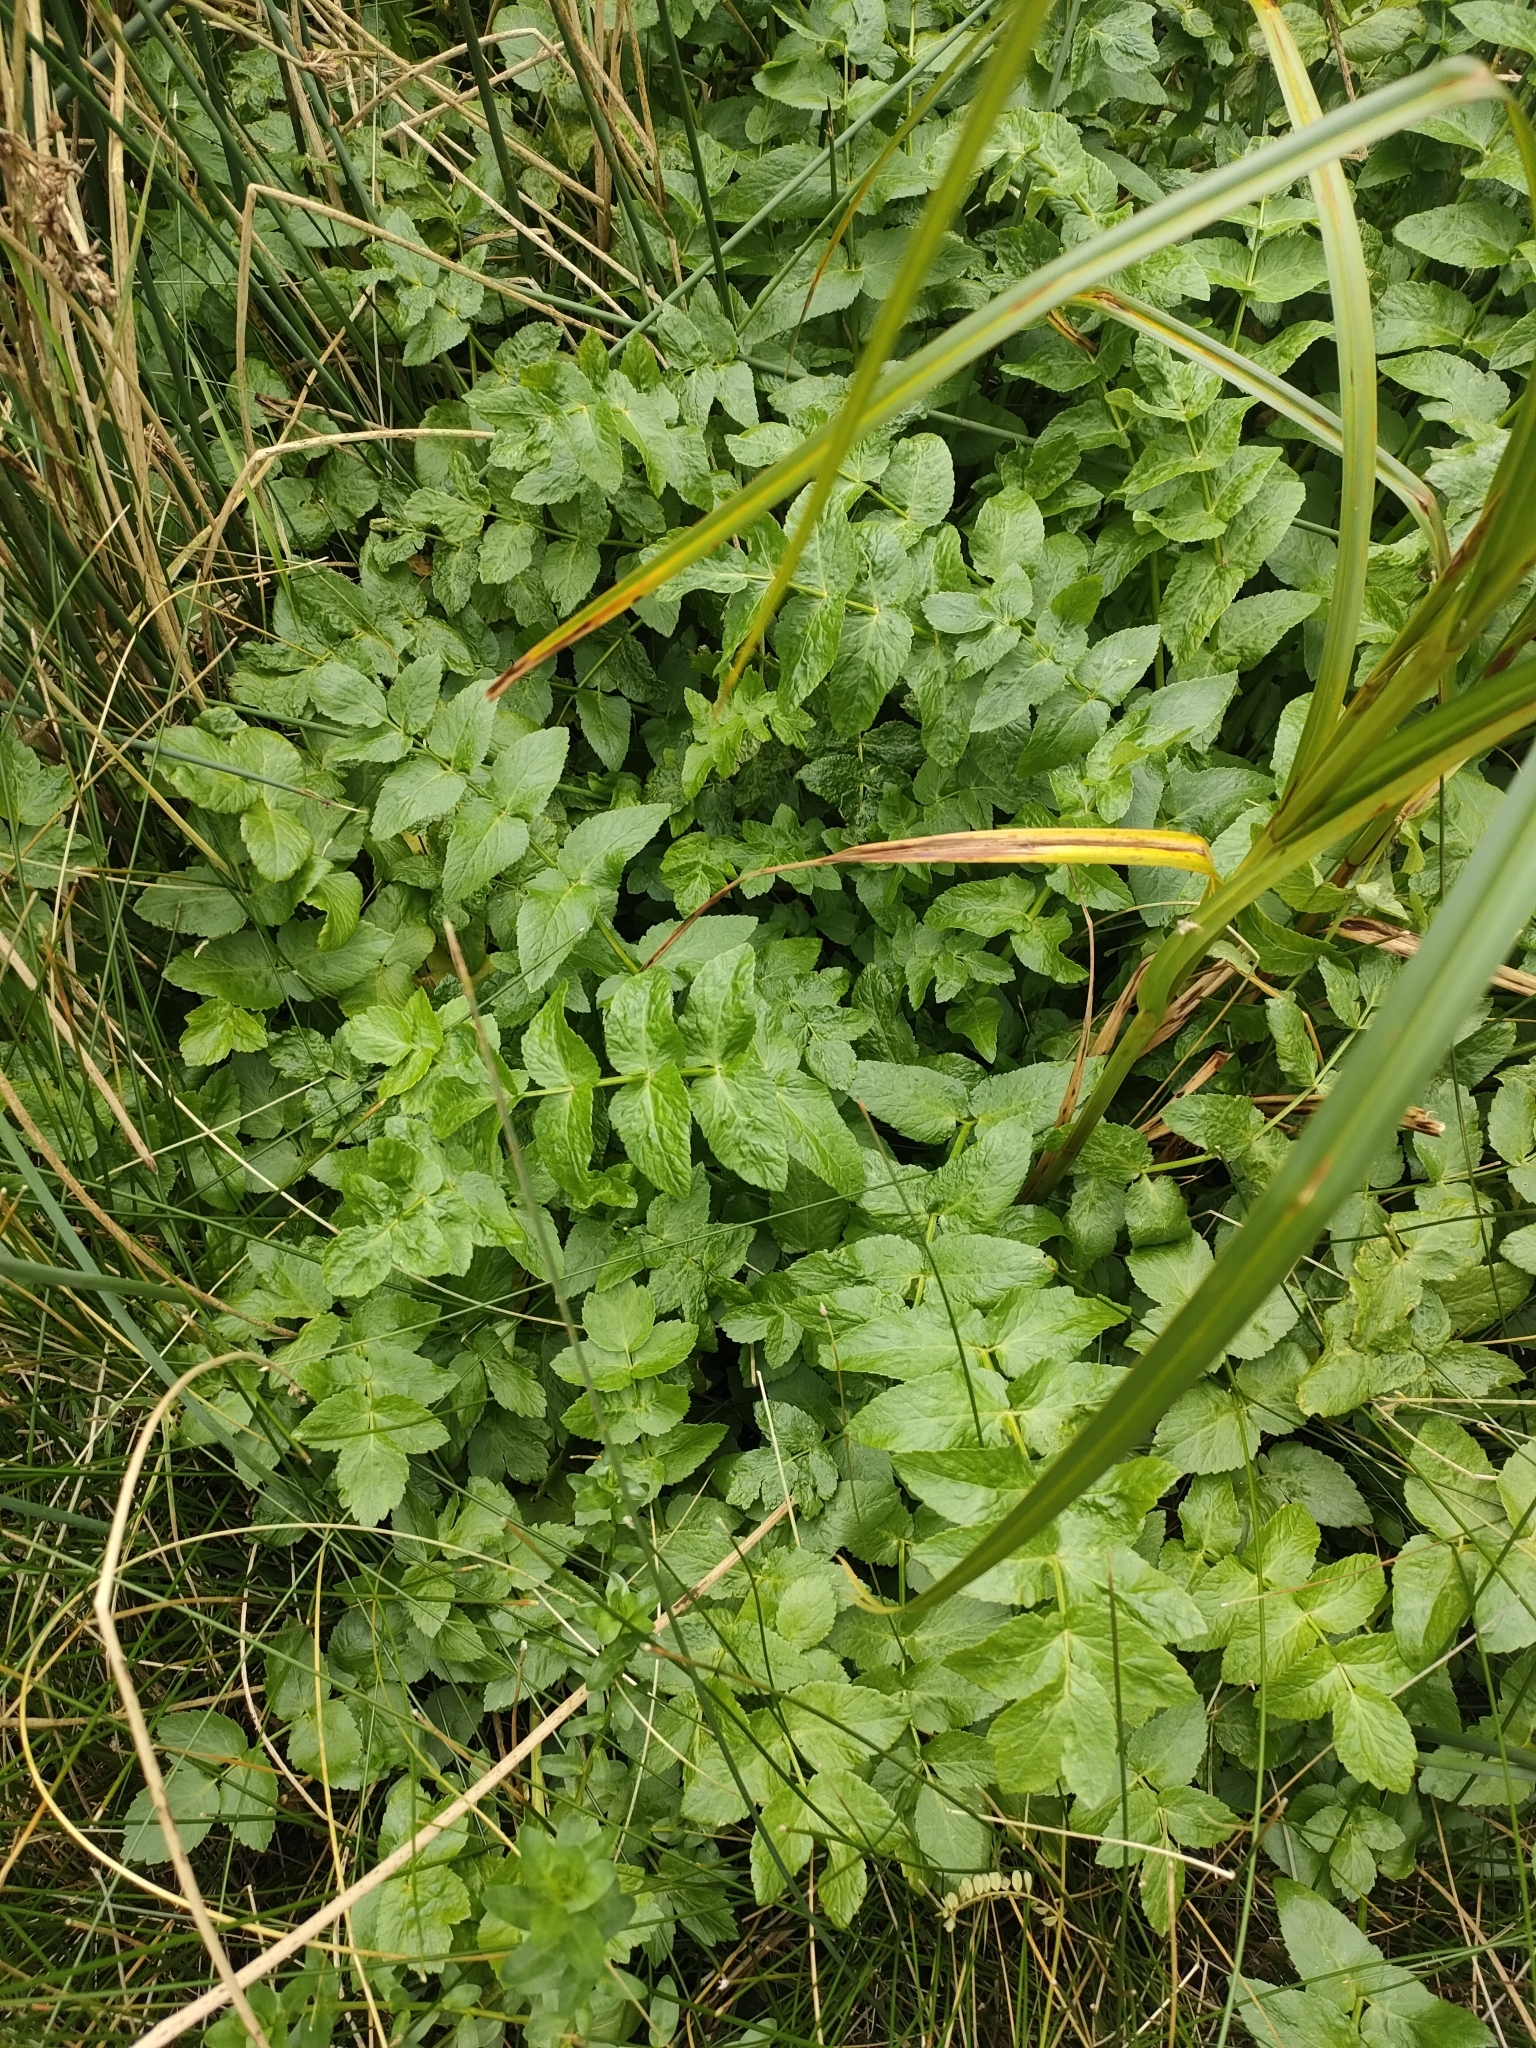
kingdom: Plantae
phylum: Tracheophyta
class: Magnoliopsida
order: Apiales
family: Apiaceae
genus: Helosciadium
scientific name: Helosciadium nodiflorum
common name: Fool's-watercress
